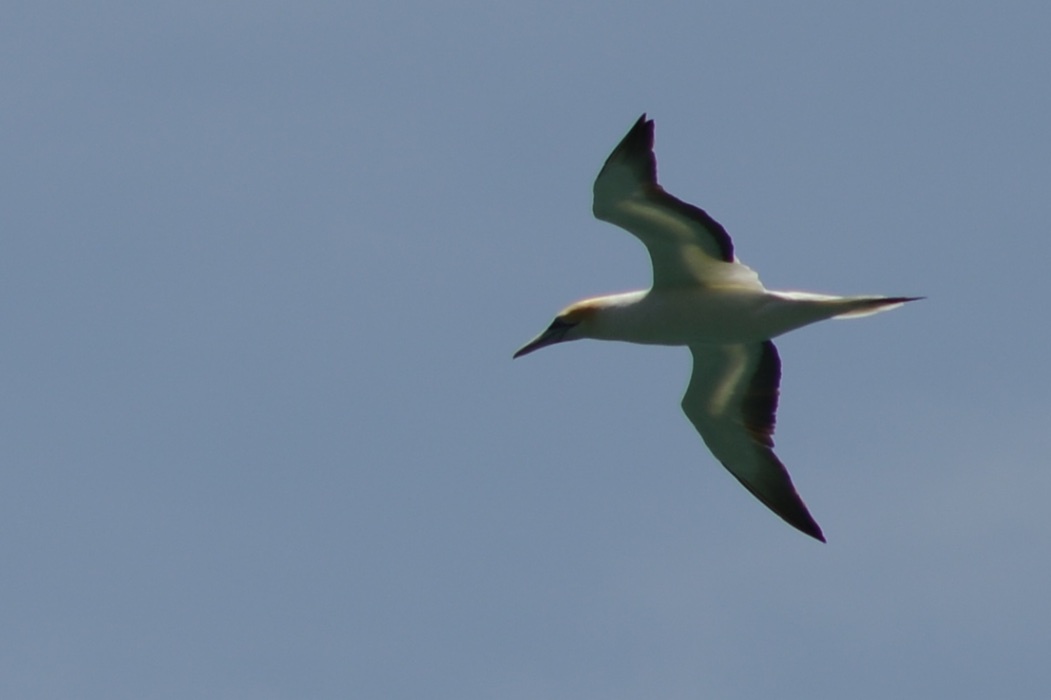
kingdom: Animalia
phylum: Chordata
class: Aves
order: Suliformes
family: Sulidae
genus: Morus
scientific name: Morus serrator
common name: Australasian gannet
